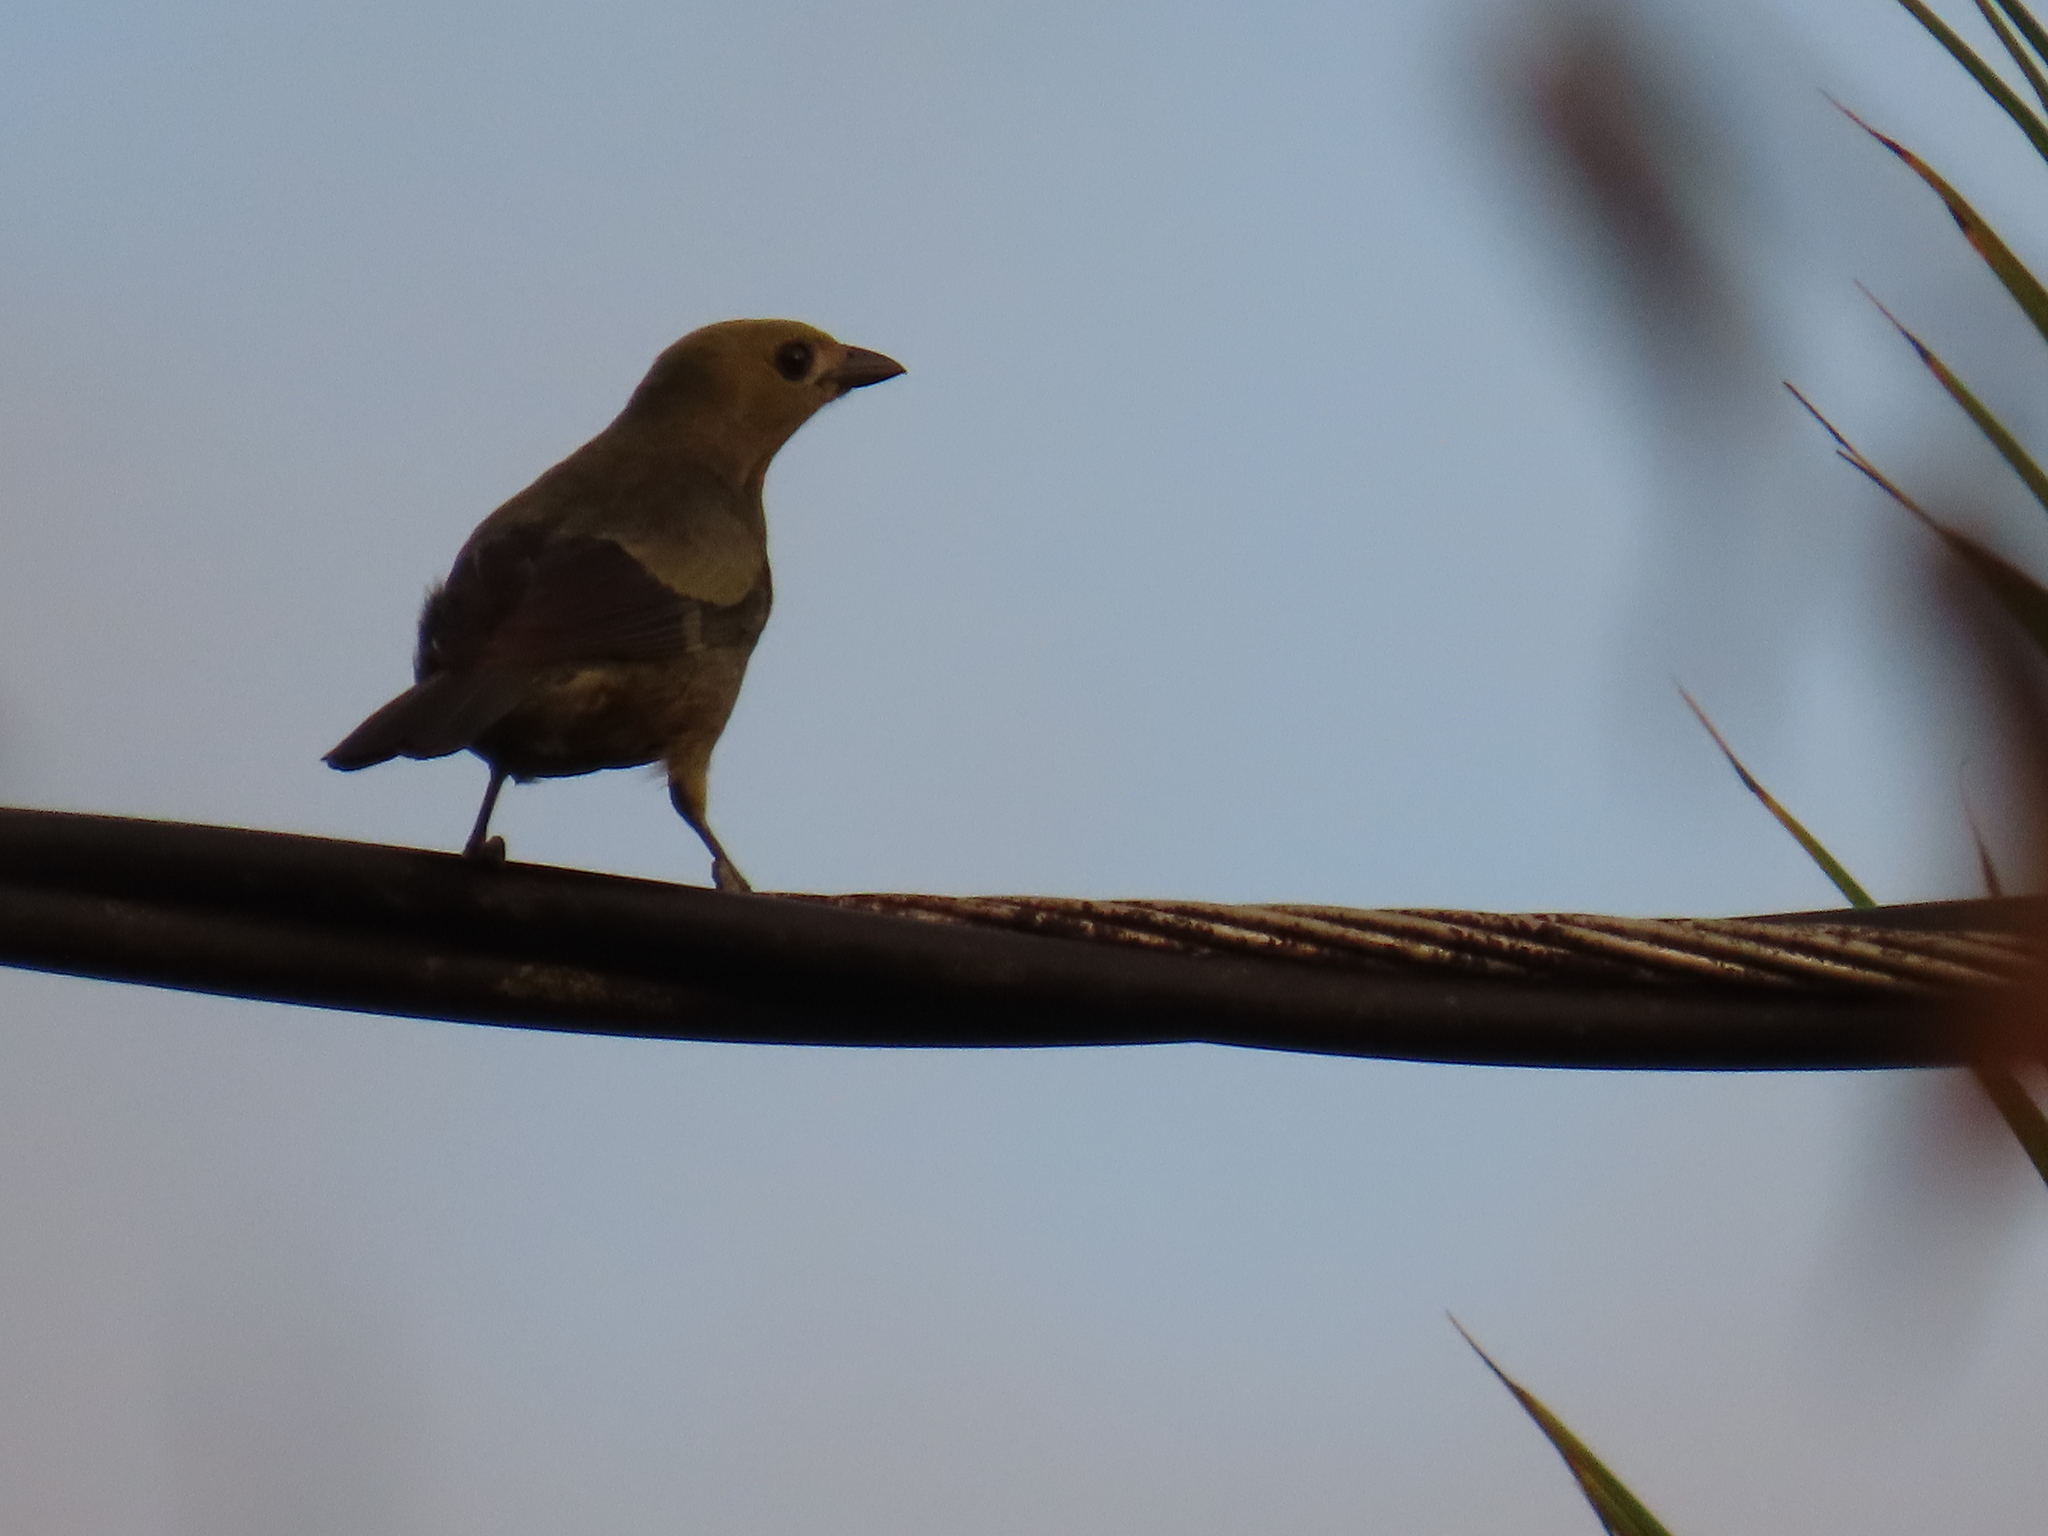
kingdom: Animalia
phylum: Chordata
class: Aves
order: Passeriformes
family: Thraupidae
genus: Thraupis
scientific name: Thraupis palmarum
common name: Palm tanager
